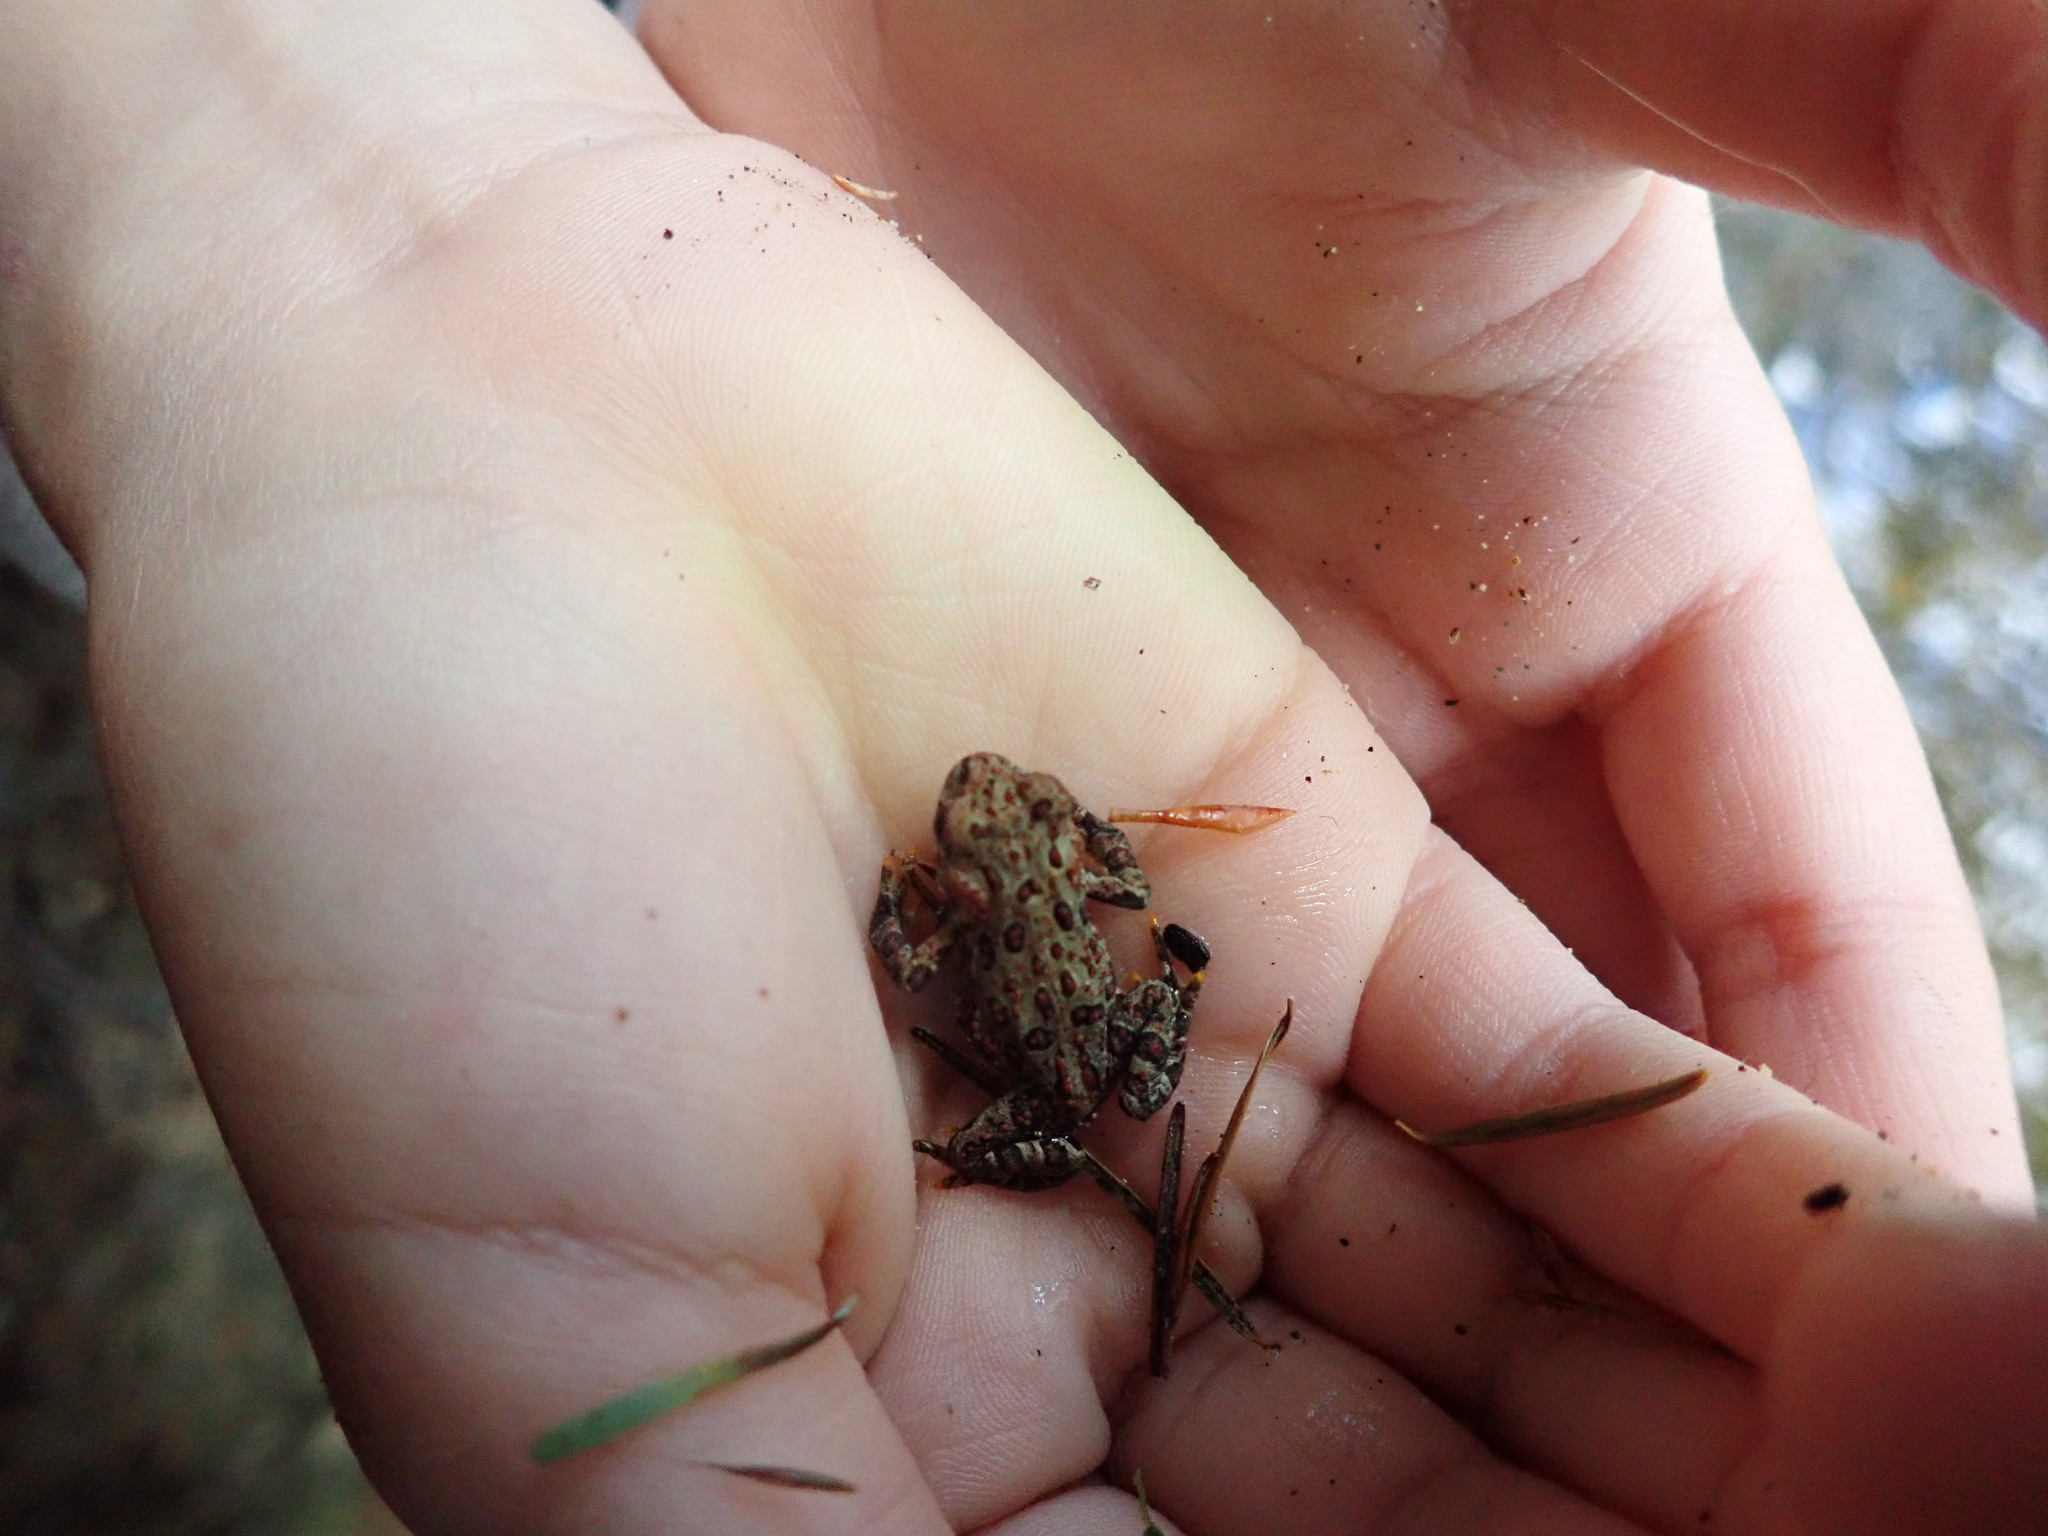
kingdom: Animalia
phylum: Chordata
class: Amphibia
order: Anura
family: Bufonidae
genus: Anaxyrus
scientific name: Anaxyrus boreas
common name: Western toad
